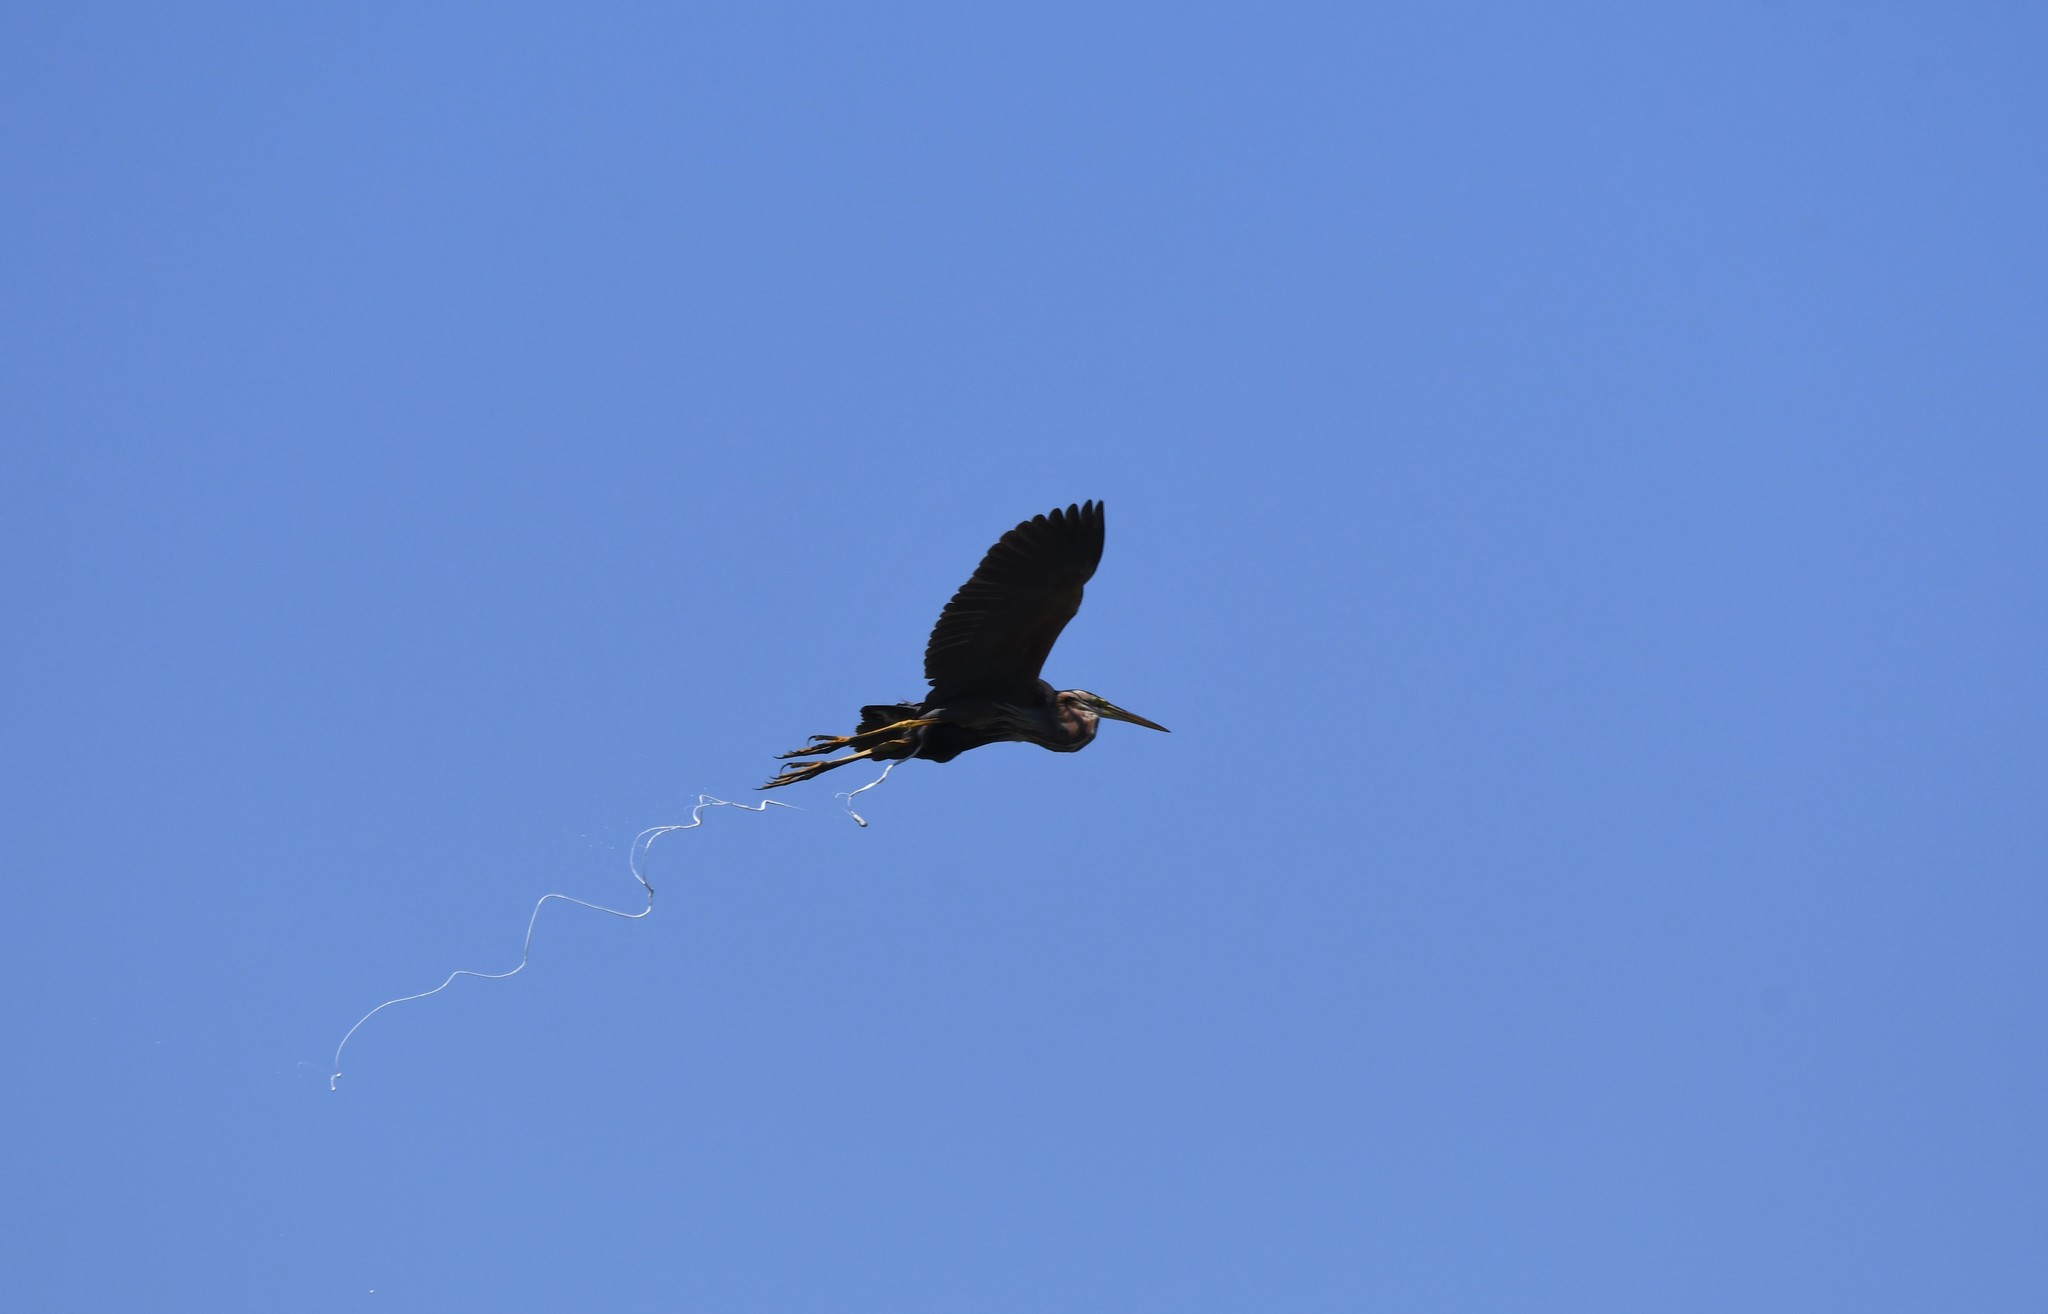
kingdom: Animalia
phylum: Chordata
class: Aves
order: Pelecaniformes
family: Ardeidae
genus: Ardea
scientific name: Ardea purpurea
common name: Purple heron
